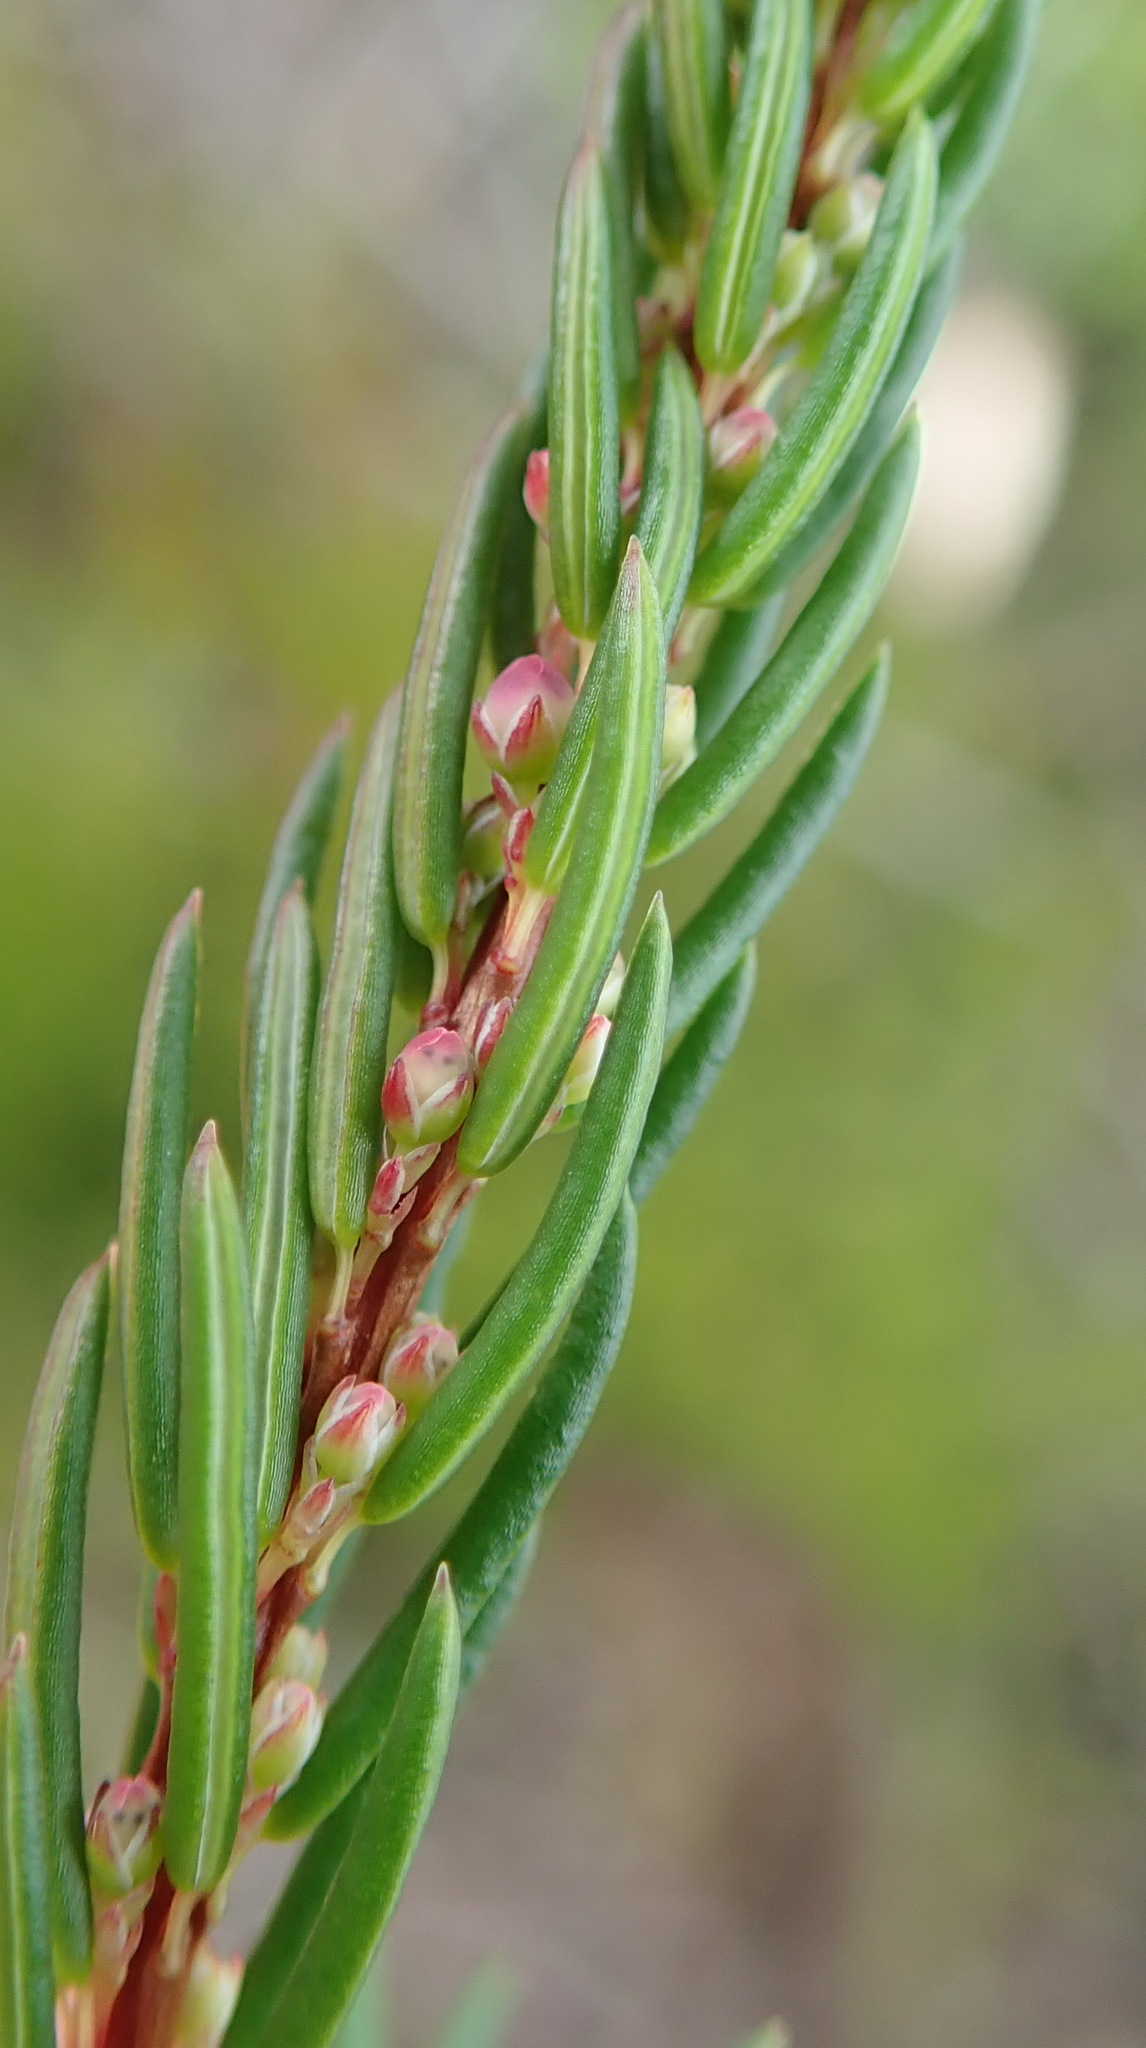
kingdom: Plantae
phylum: Tracheophyta
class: Magnoliopsida
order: Ericales
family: Ericaceae
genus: Erica
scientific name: Erica regerminans
